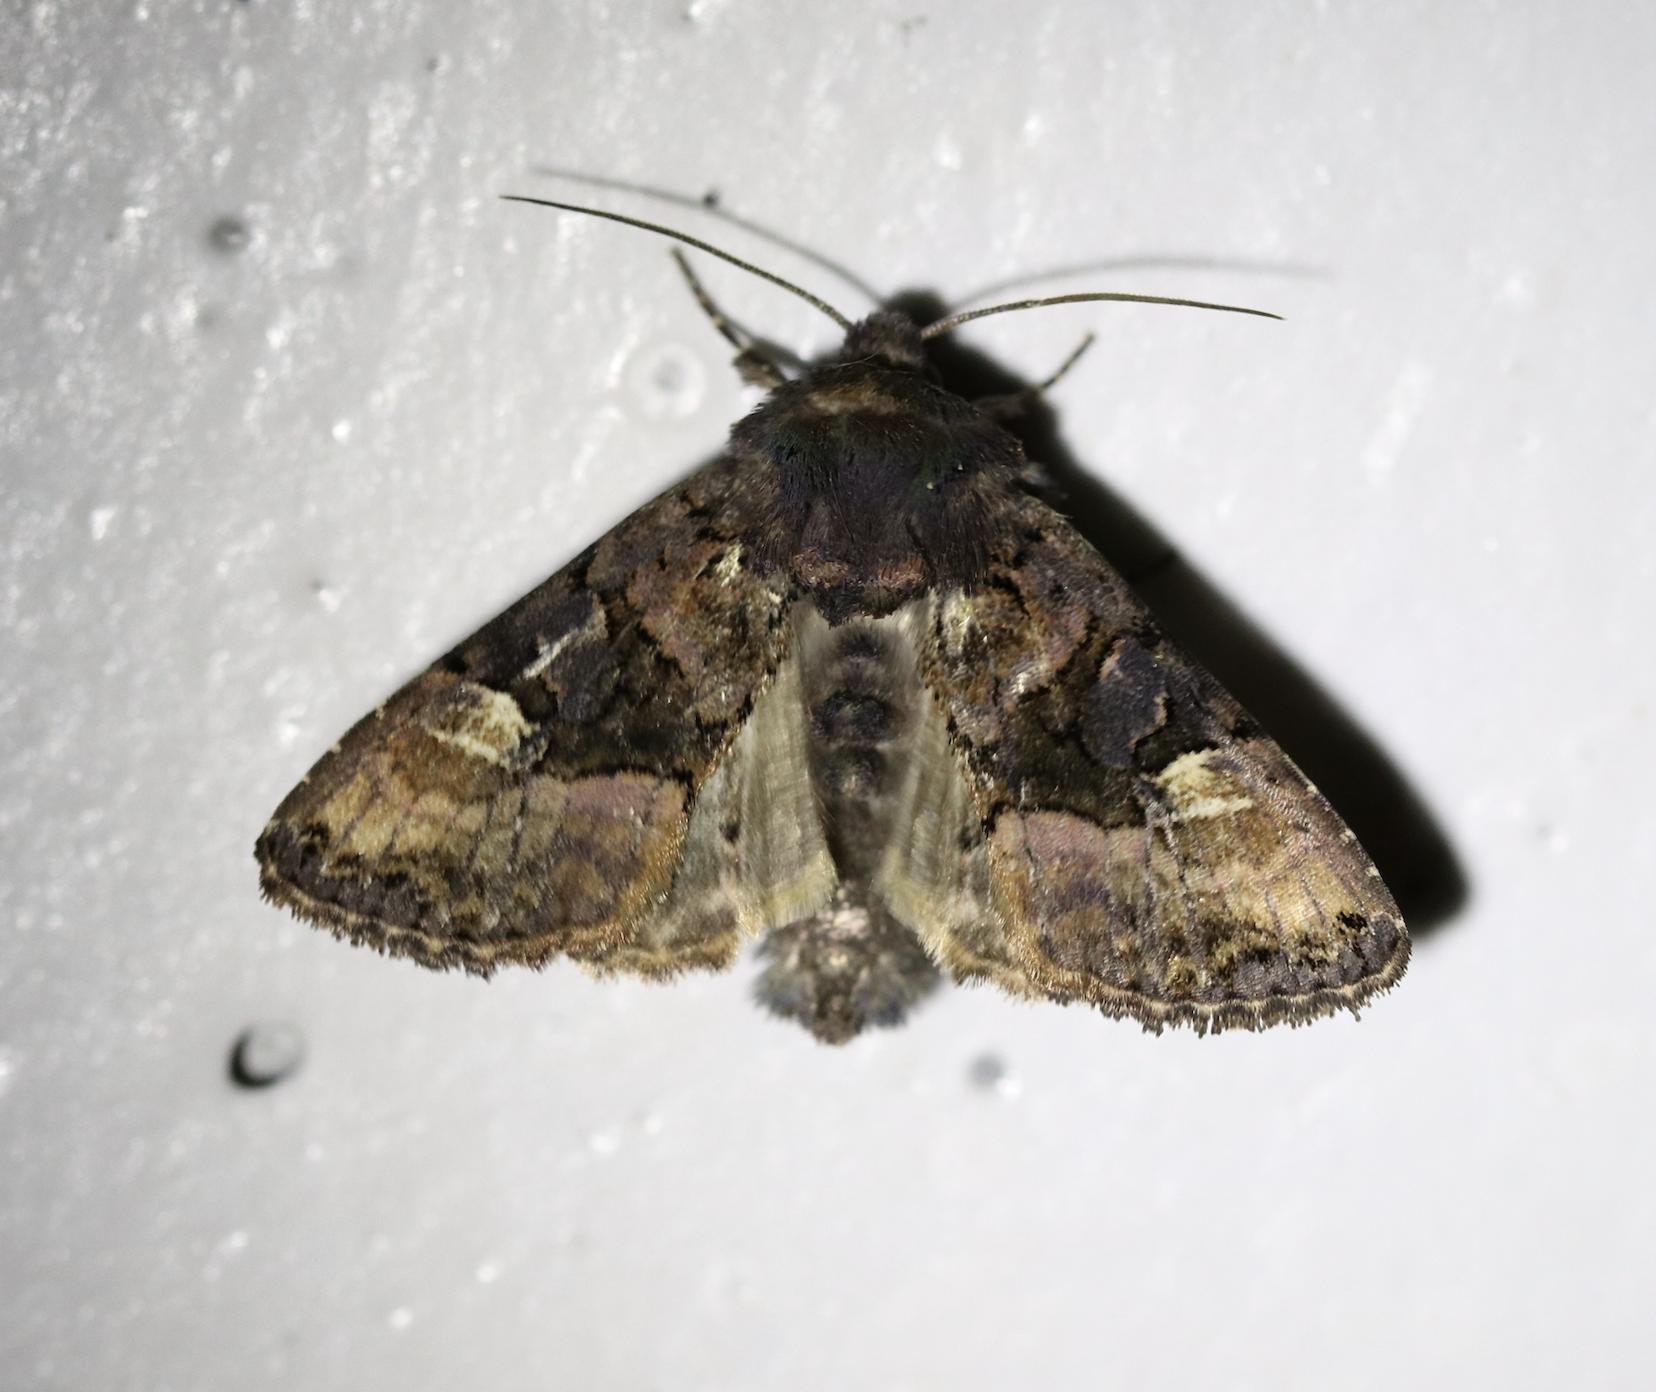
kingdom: Animalia
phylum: Arthropoda
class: Insecta
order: Lepidoptera
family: Noctuidae
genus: Euplexia
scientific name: Euplexia lucipara
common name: Small angle shades
